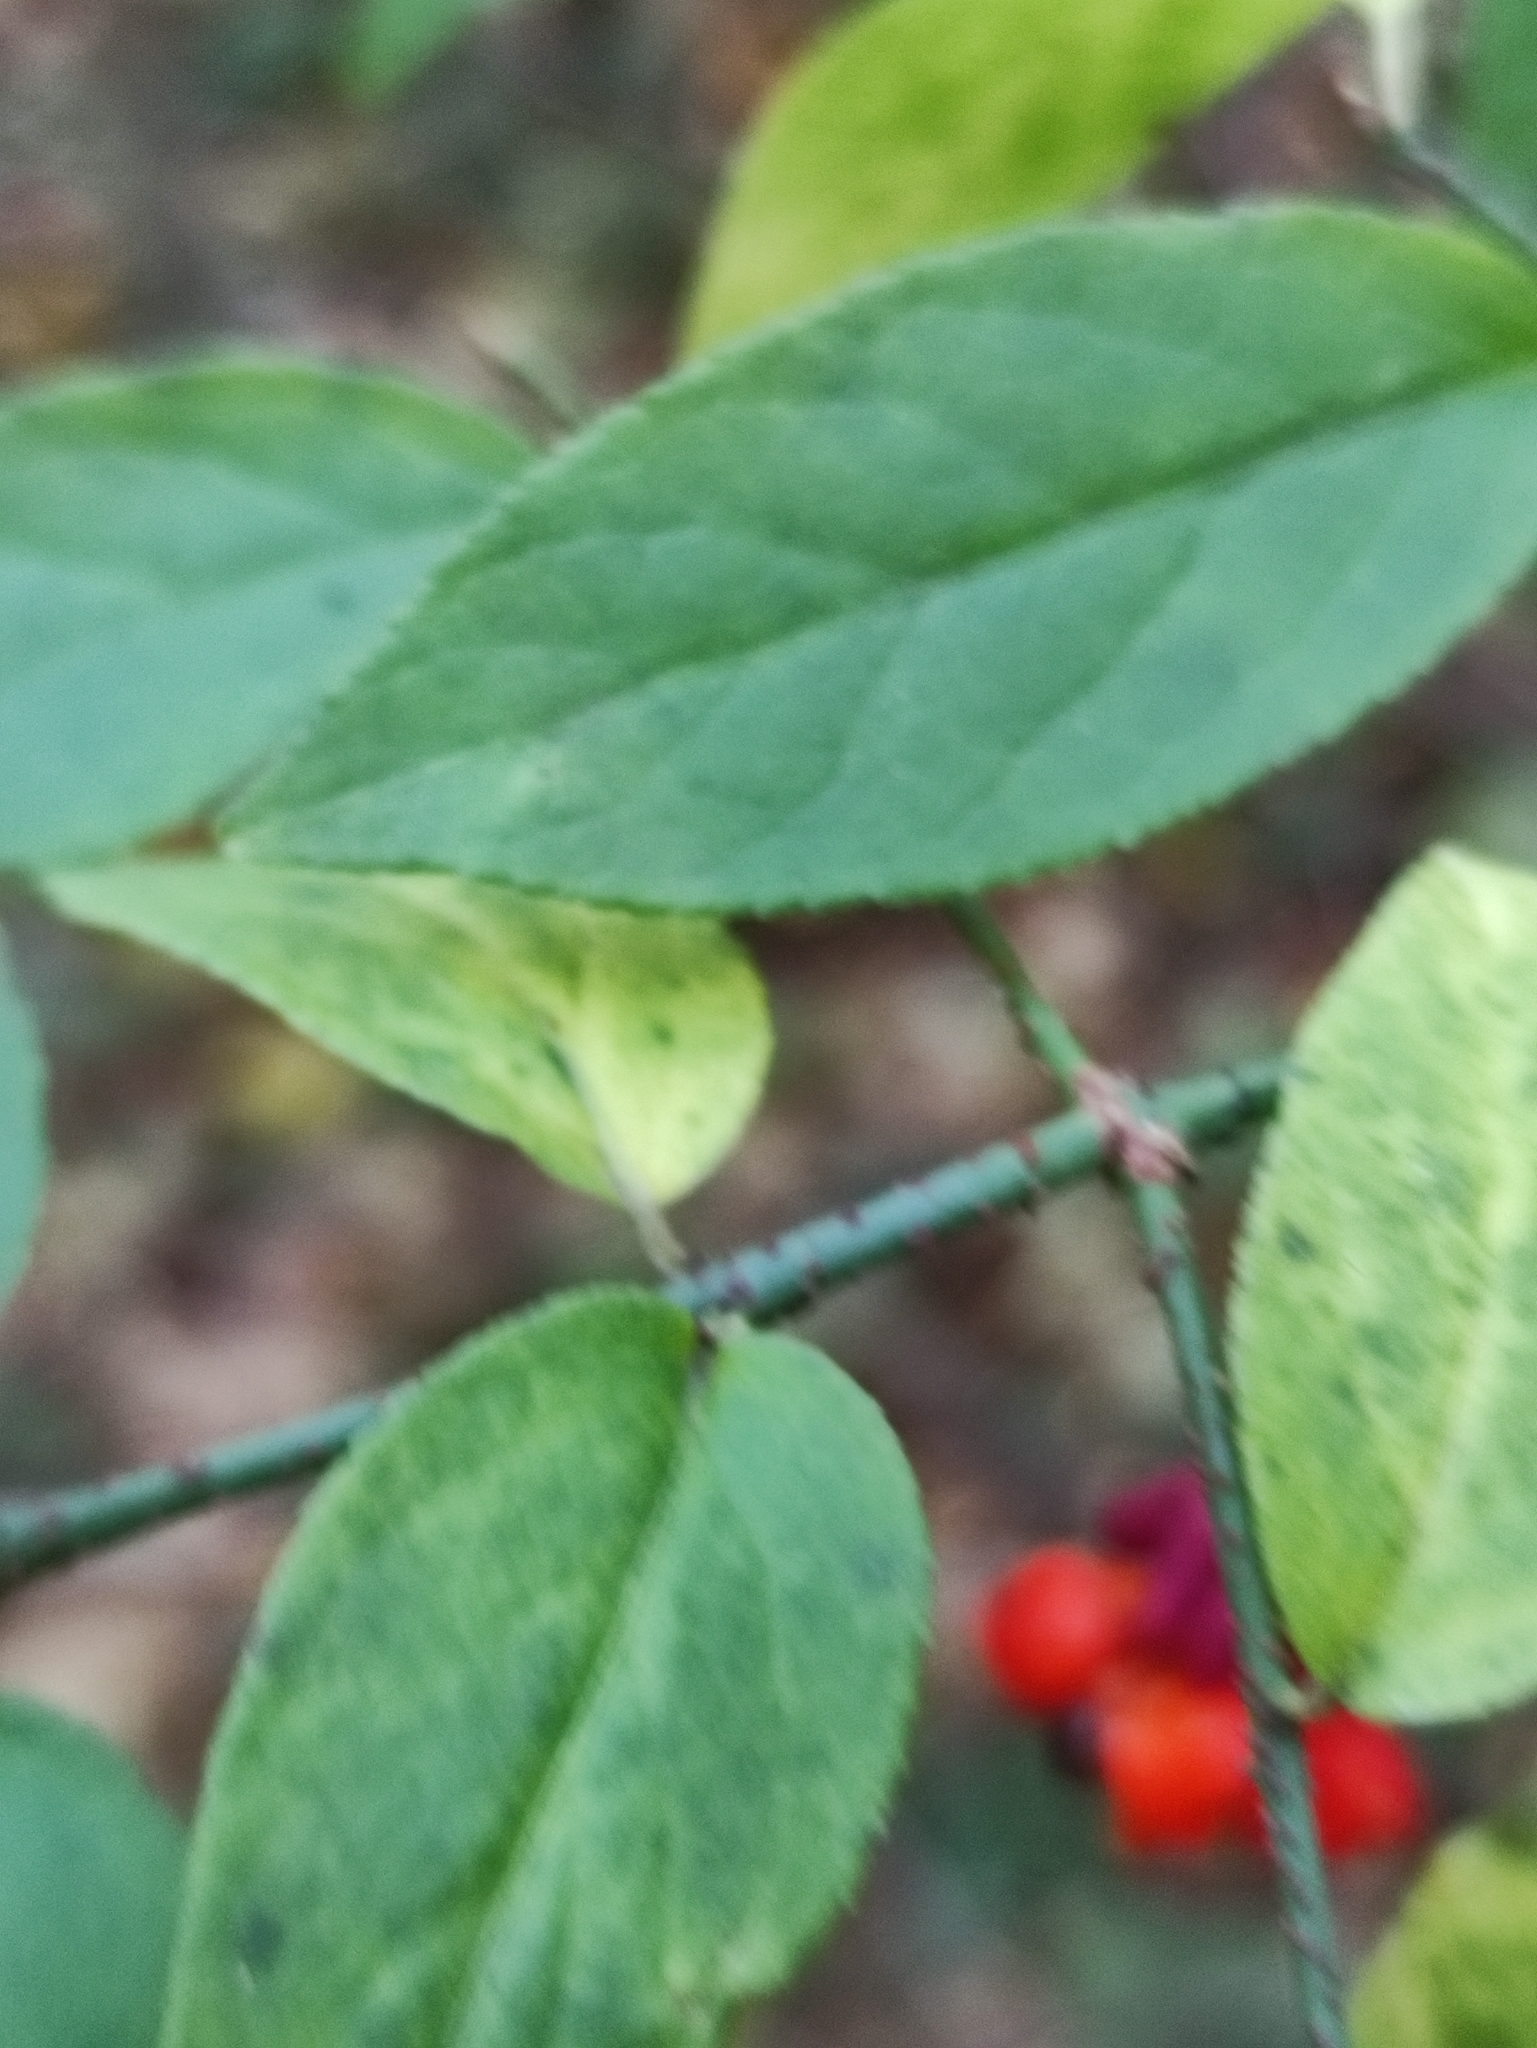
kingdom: Plantae
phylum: Tracheophyta
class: Magnoliopsida
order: Celastrales
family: Celastraceae
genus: Euonymus
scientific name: Euonymus verrucosus
